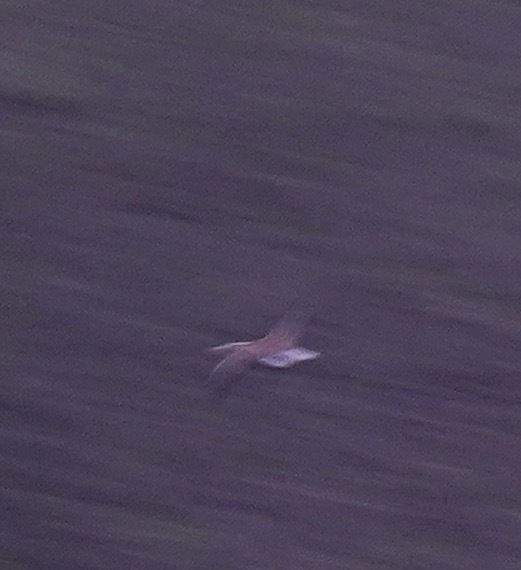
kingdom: Animalia
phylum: Chordata
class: Aves
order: Accipitriformes
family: Accipitridae
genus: Haliaeetus
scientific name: Haliaeetus leucocephalus
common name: Bald eagle
